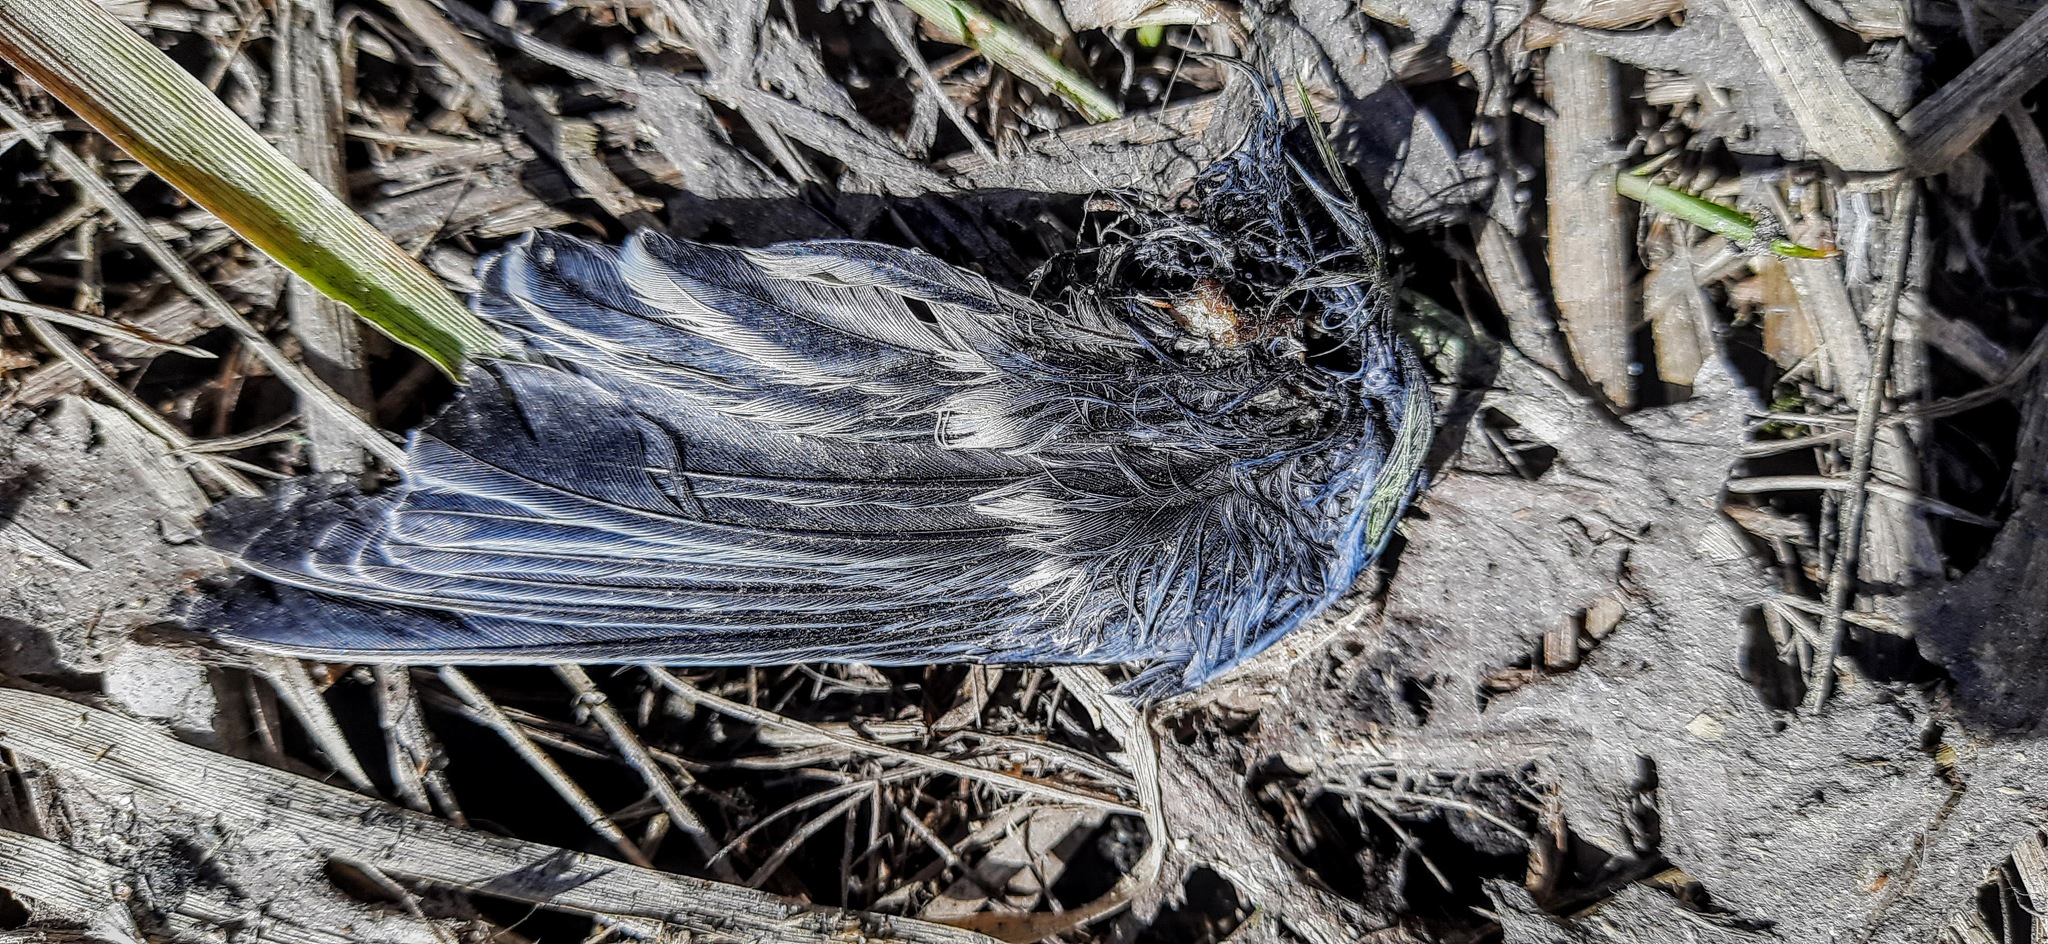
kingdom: Animalia
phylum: Chordata
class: Aves
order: Passeriformes
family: Paridae
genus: Parus
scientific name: Parus major
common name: Great tit
